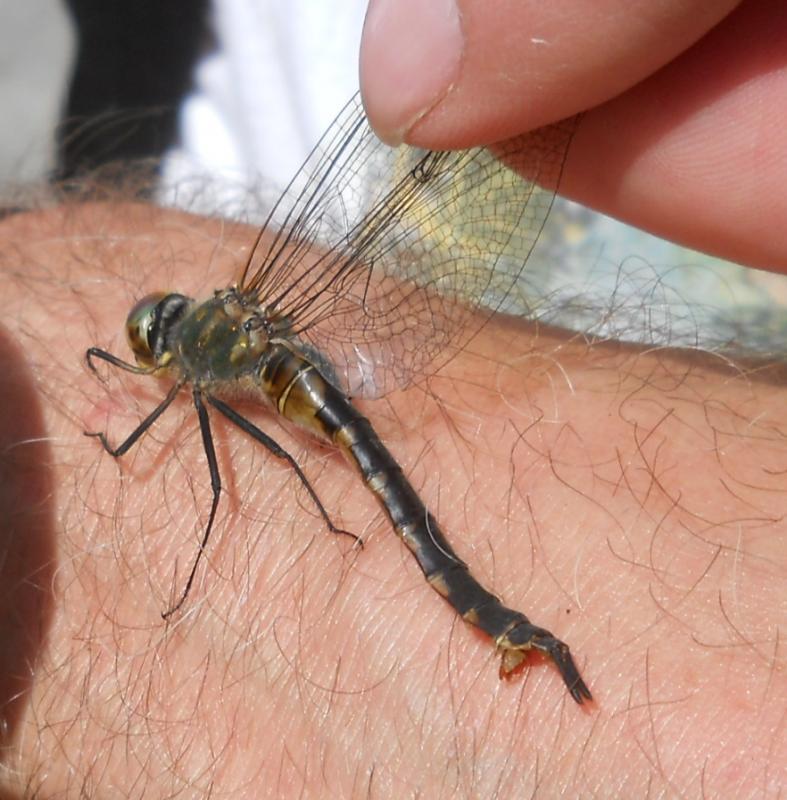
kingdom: Animalia
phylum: Arthropoda
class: Insecta
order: Odonata
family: Corduliidae
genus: Somatochlora
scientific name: Somatochlora flavomaculata
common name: Yellow-spotted emerald
